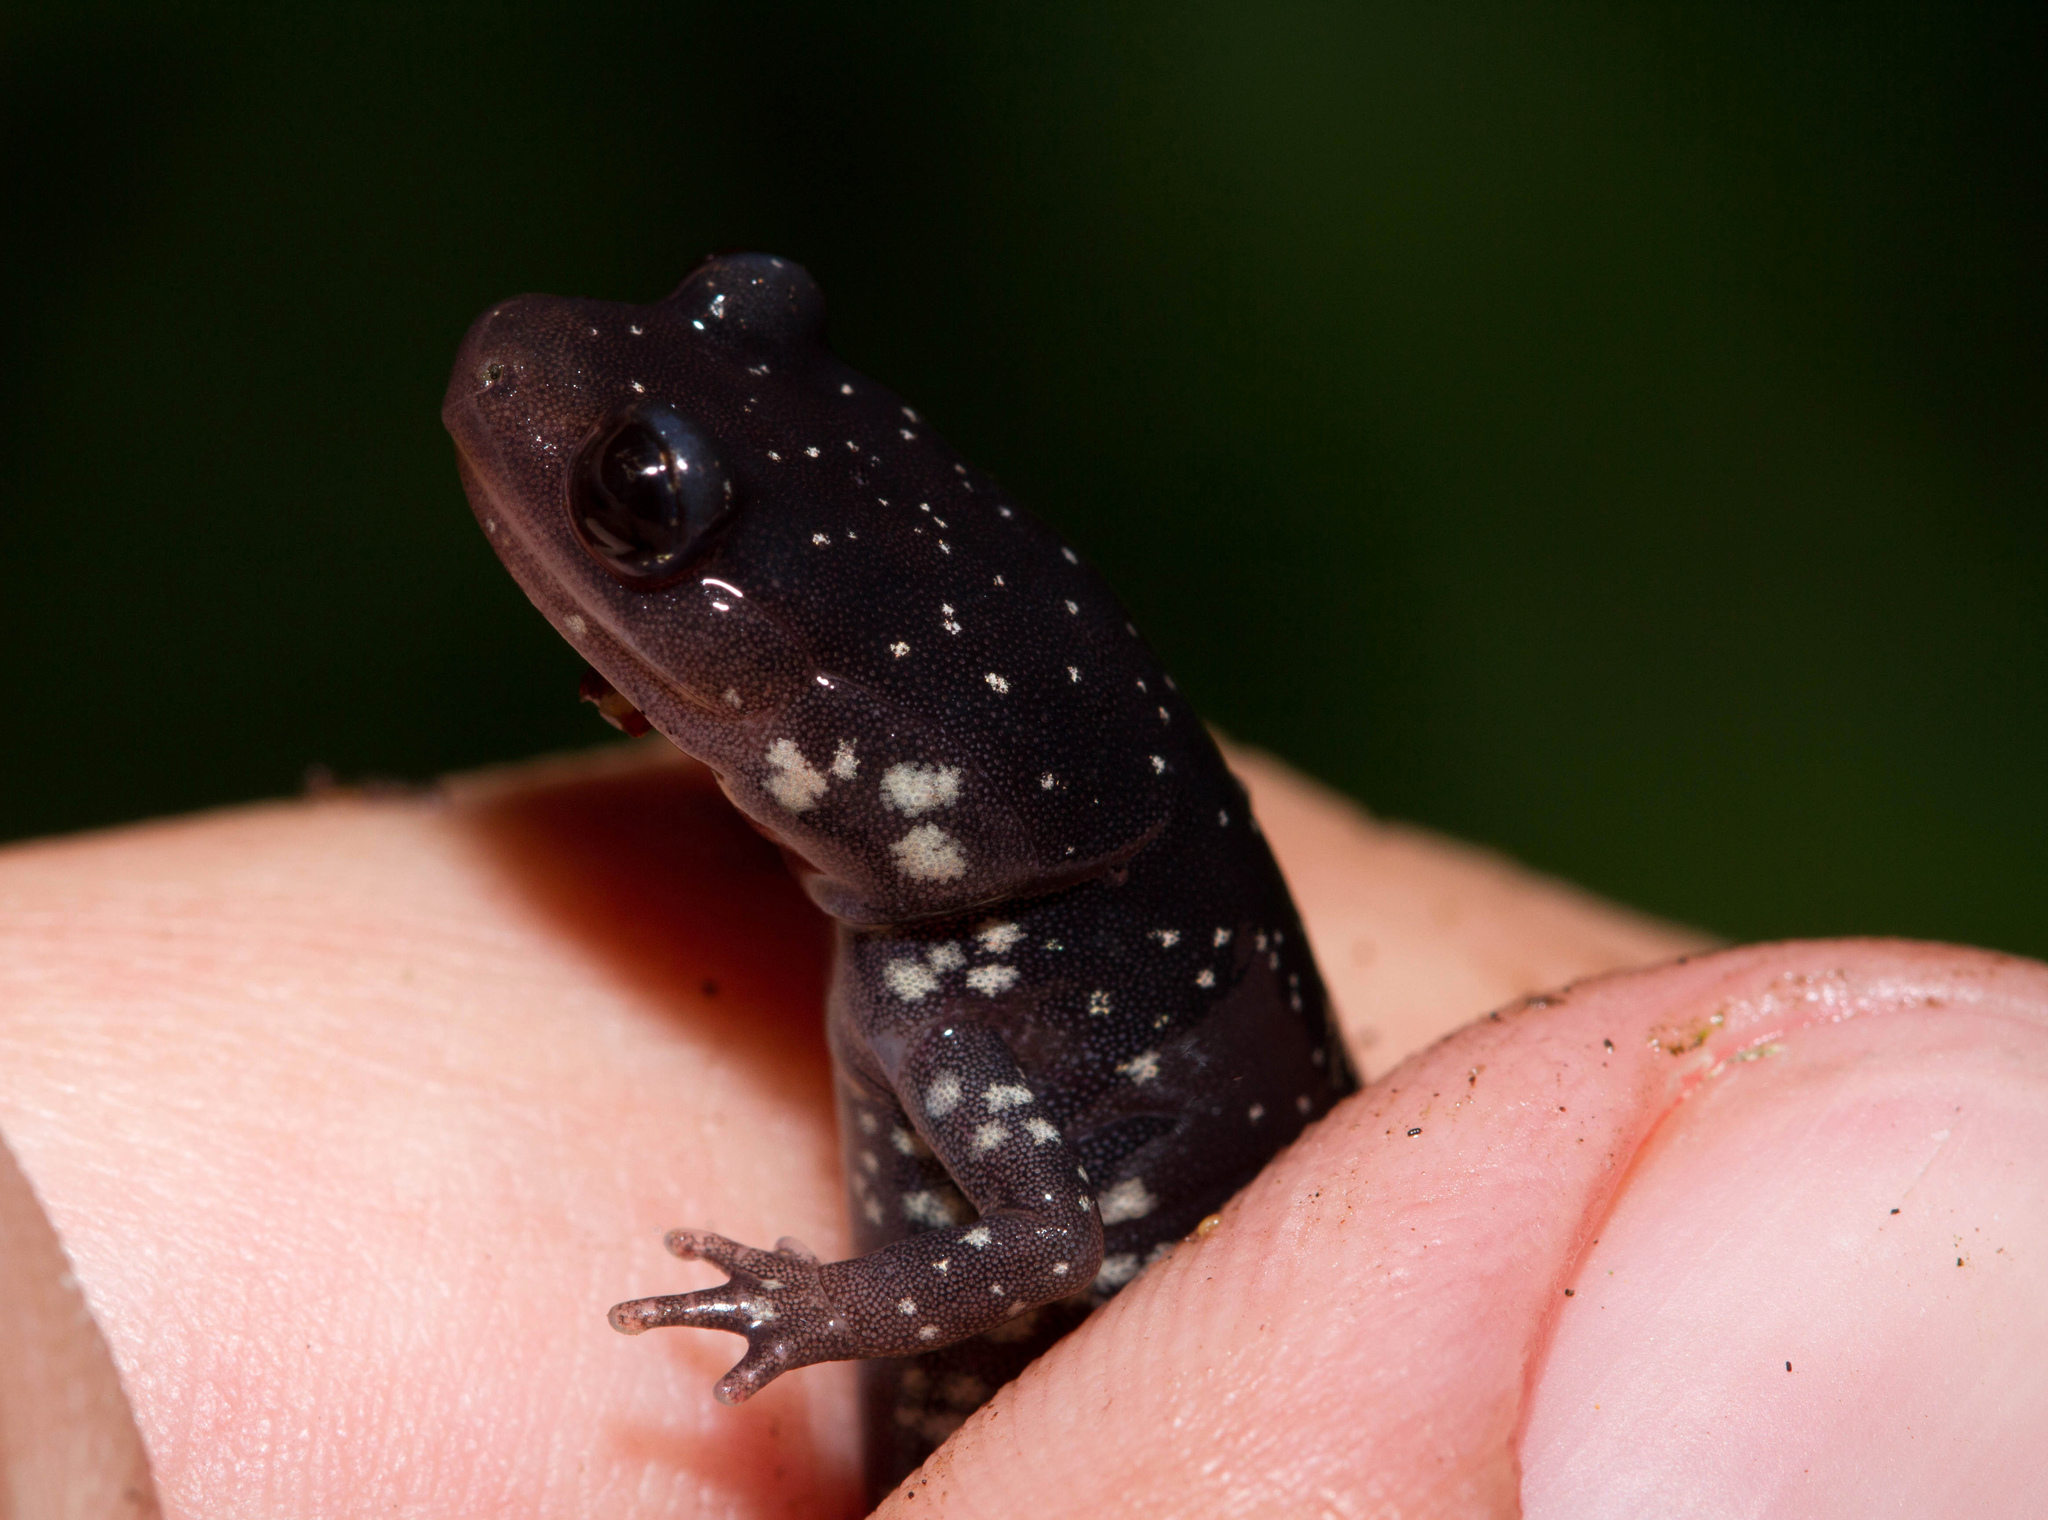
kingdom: Animalia
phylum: Chordata
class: Amphibia
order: Caudata
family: Plethodontidae
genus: Plethodon
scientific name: Plethodon albagula
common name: Western slimy salamander
